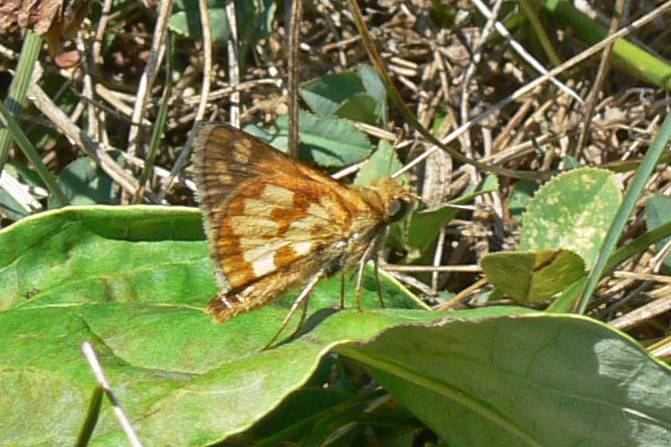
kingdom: Animalia
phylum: Arthropoda
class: Insecta
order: Lepidoptera
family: Hesperiidae
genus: Polites
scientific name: Polites coras
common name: Peck's skipper
